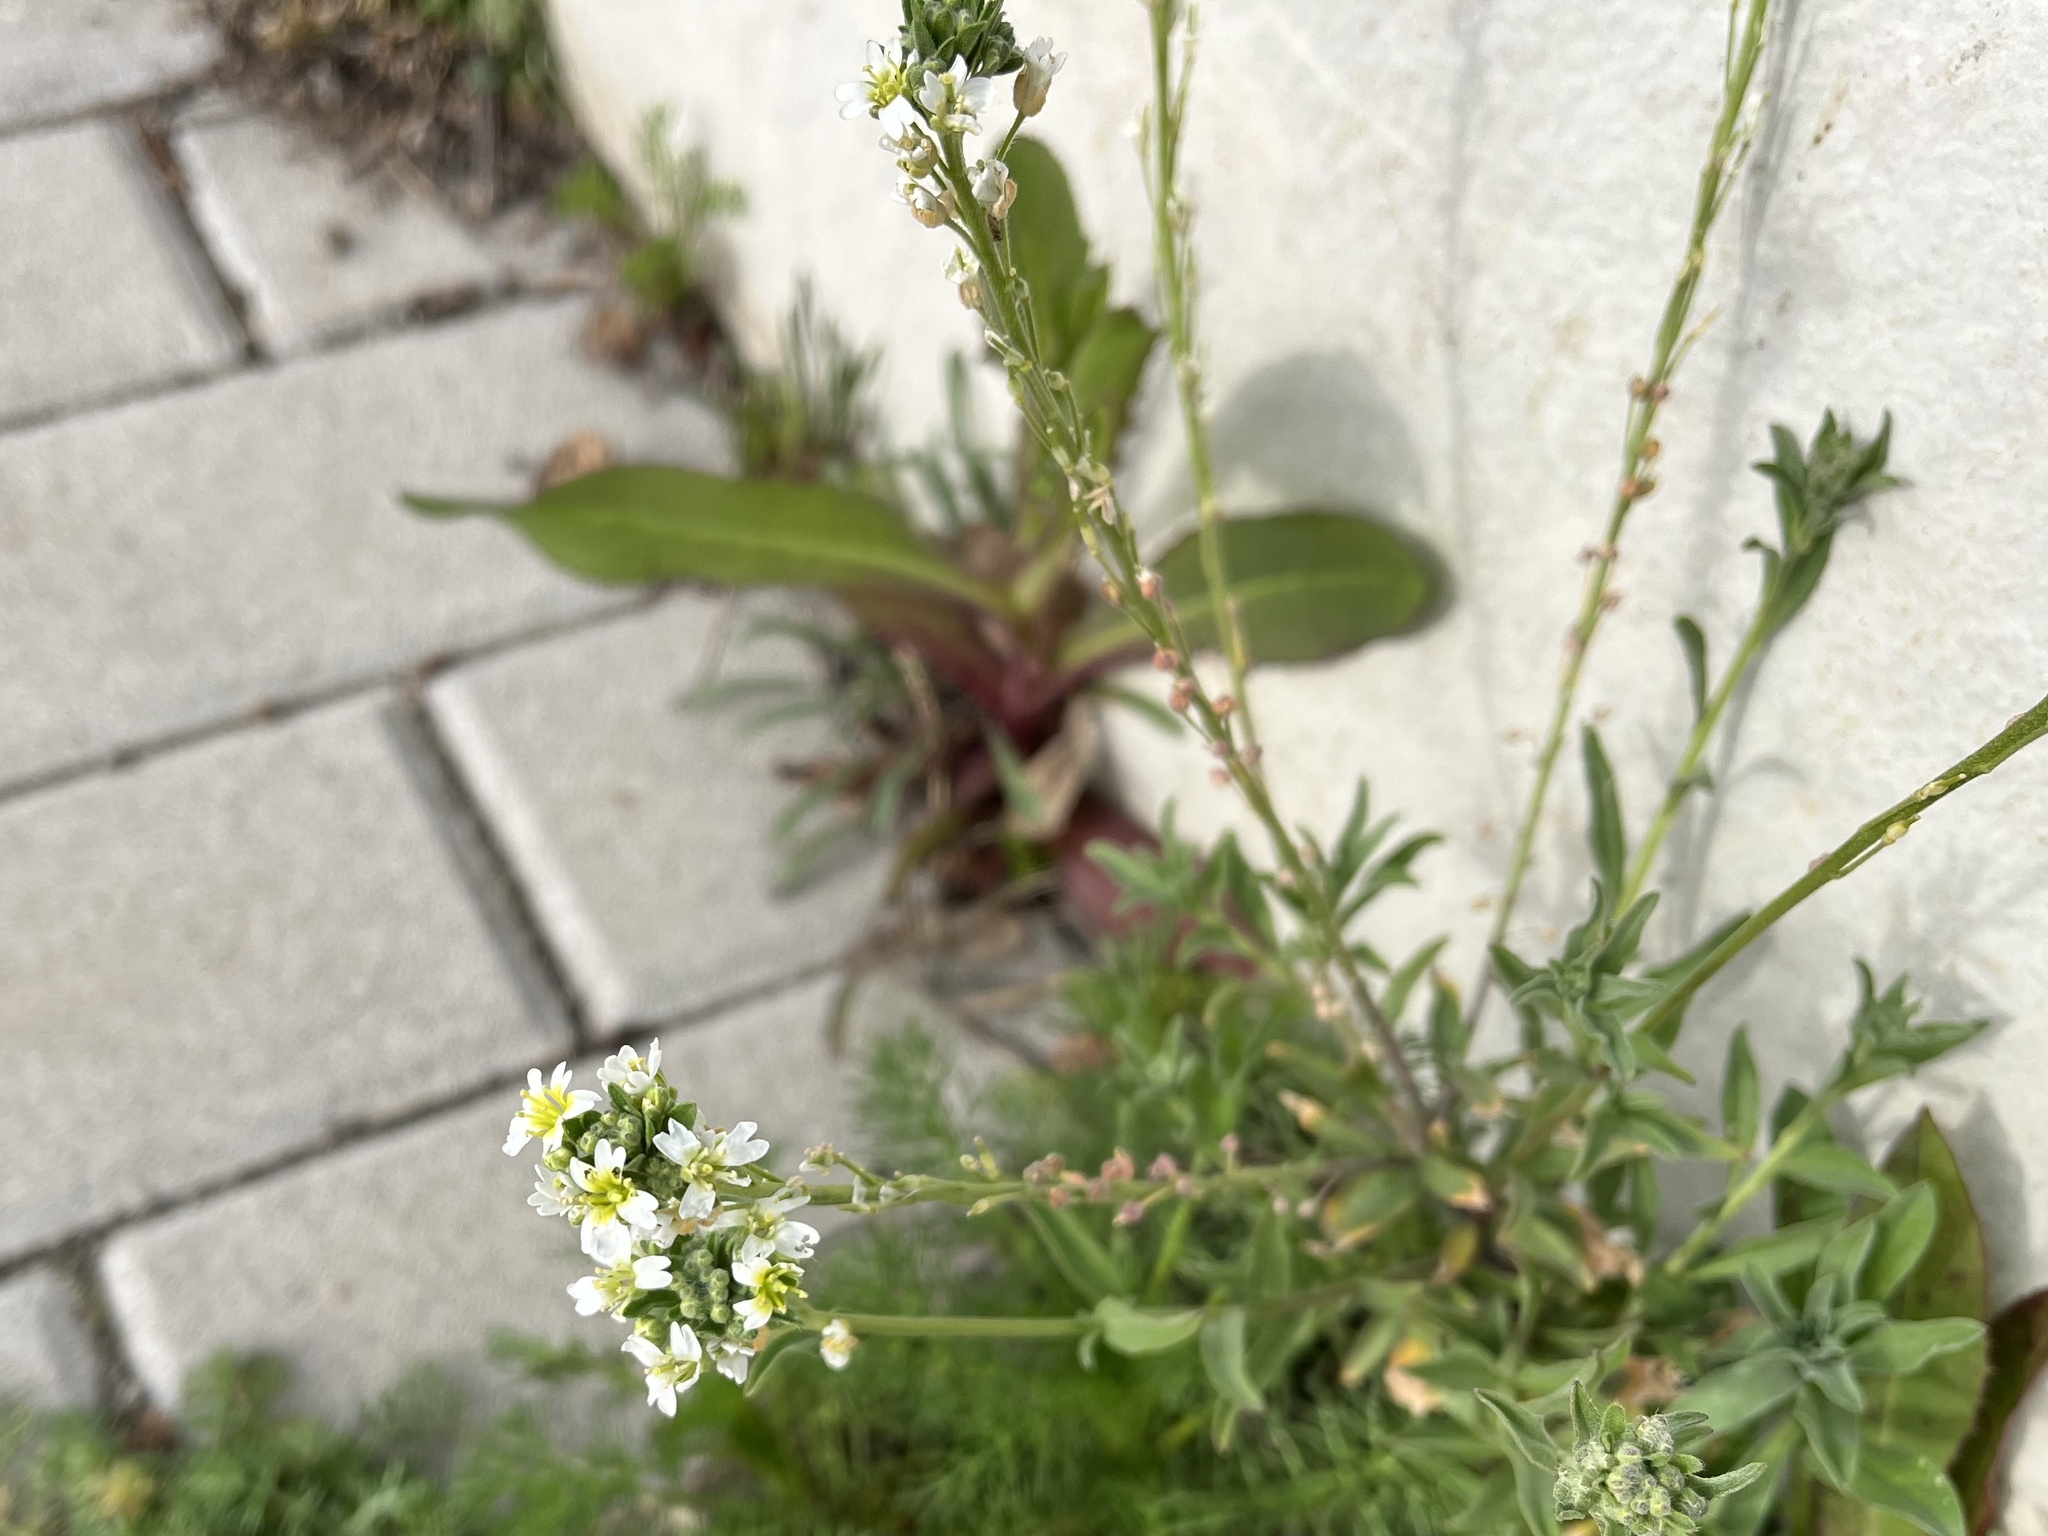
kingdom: Plantae
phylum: Tracheophyta
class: Magnoliopsida
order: Brassicales
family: Brassicaceae
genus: Berteroa
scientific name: Berteroa incana
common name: Hoary alison
